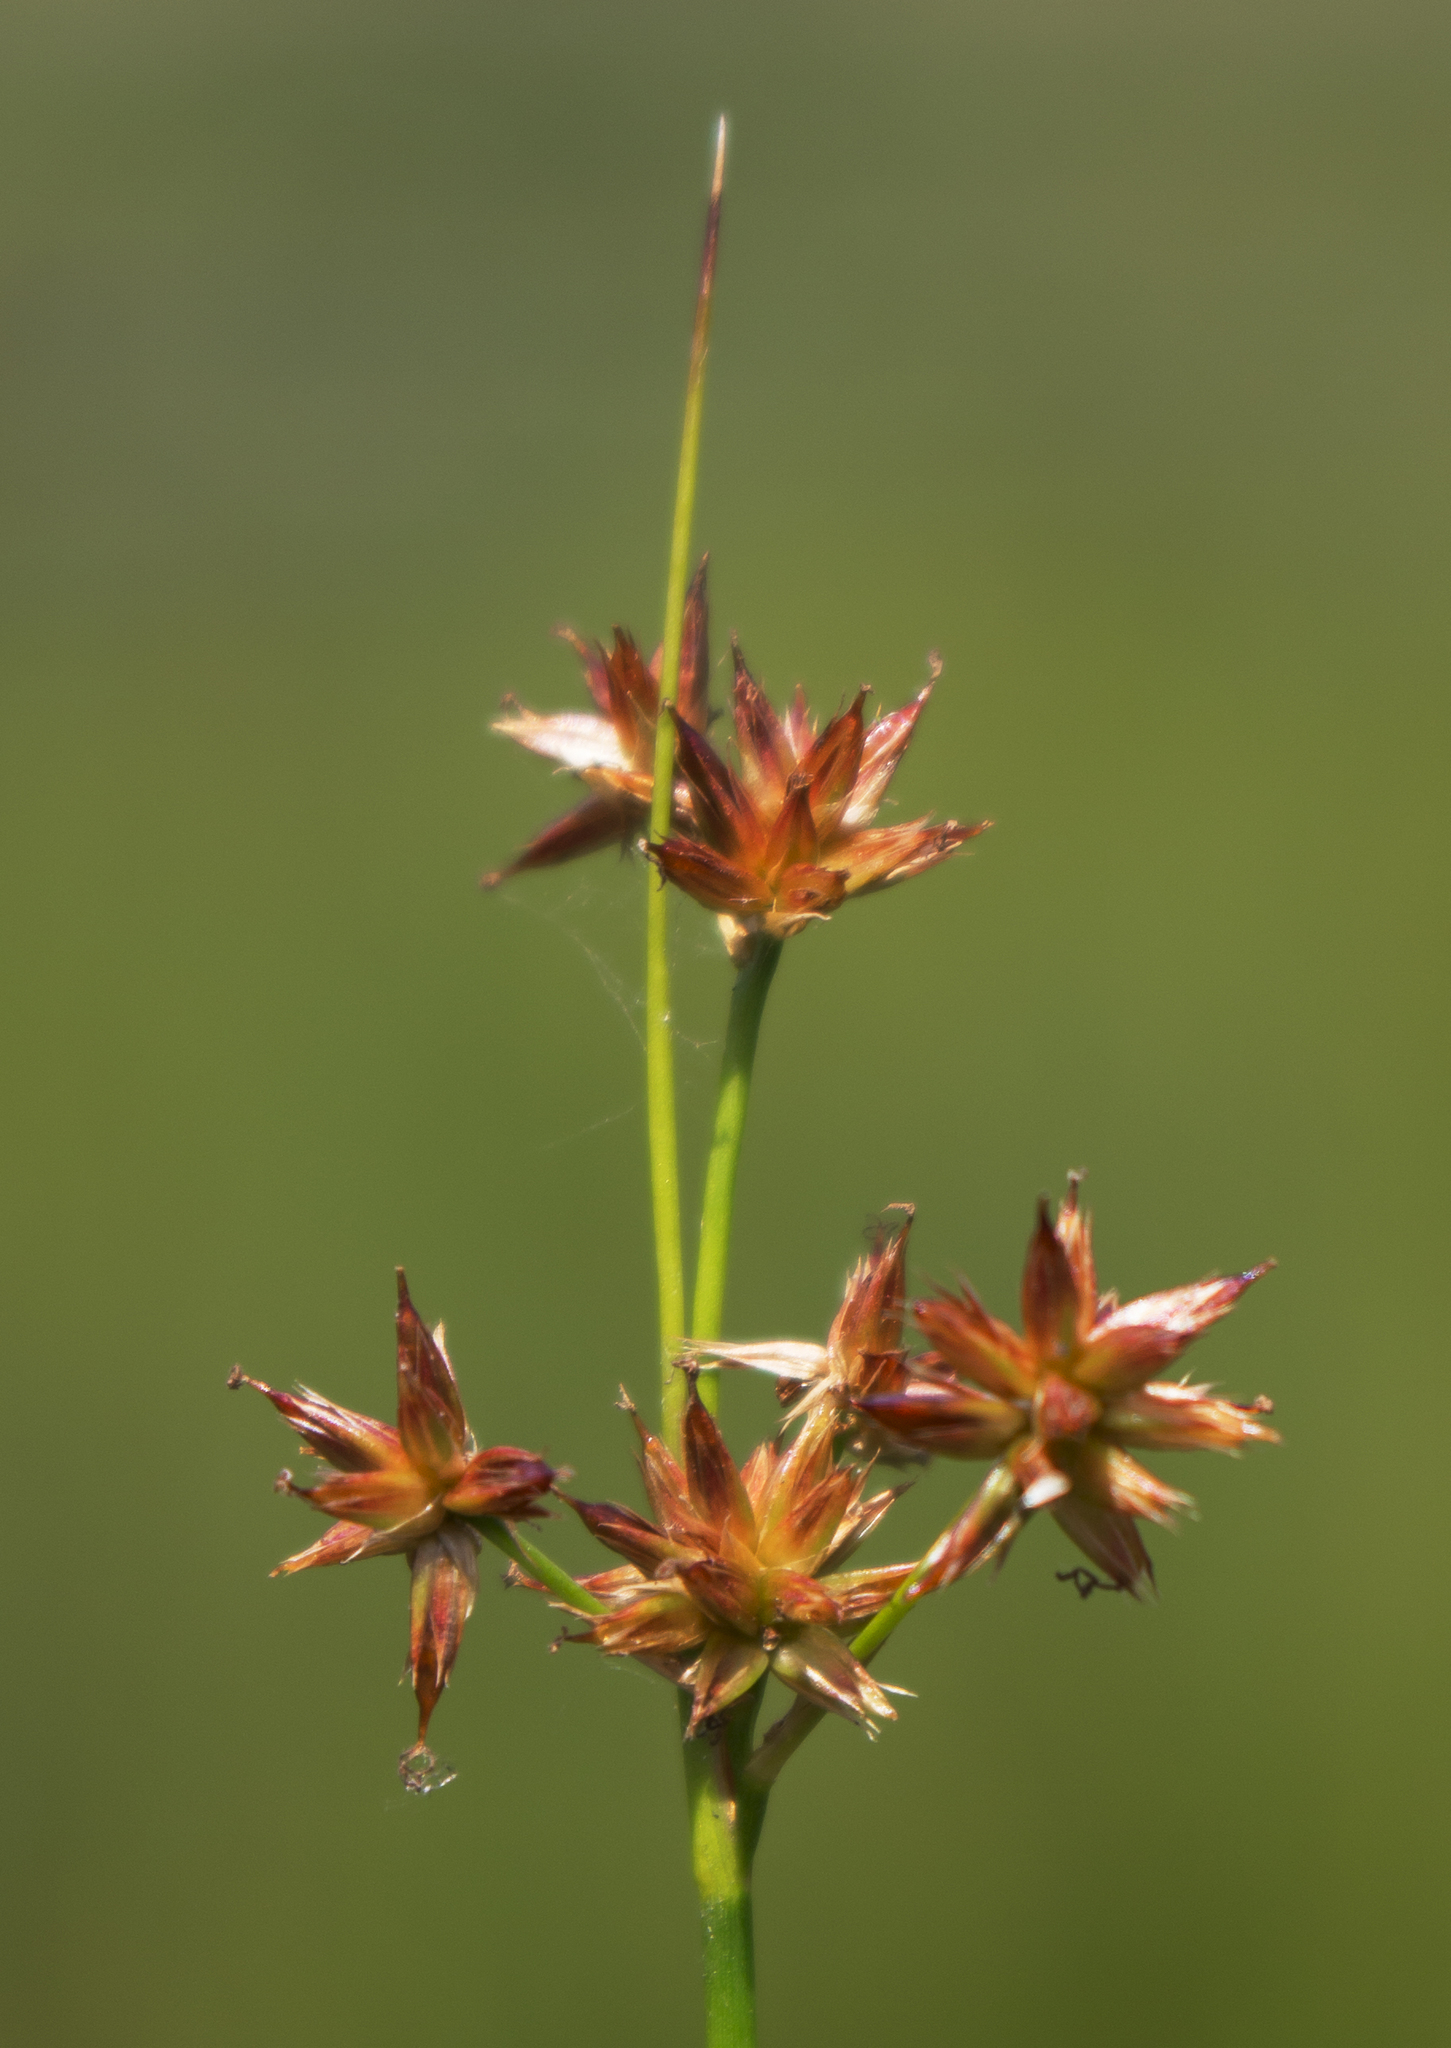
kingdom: Plantae
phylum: Tracheophyta
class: Liliopsida
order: Poales
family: Juncaceae
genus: Juncus
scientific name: Juncus nodosus
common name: Knotted rush
